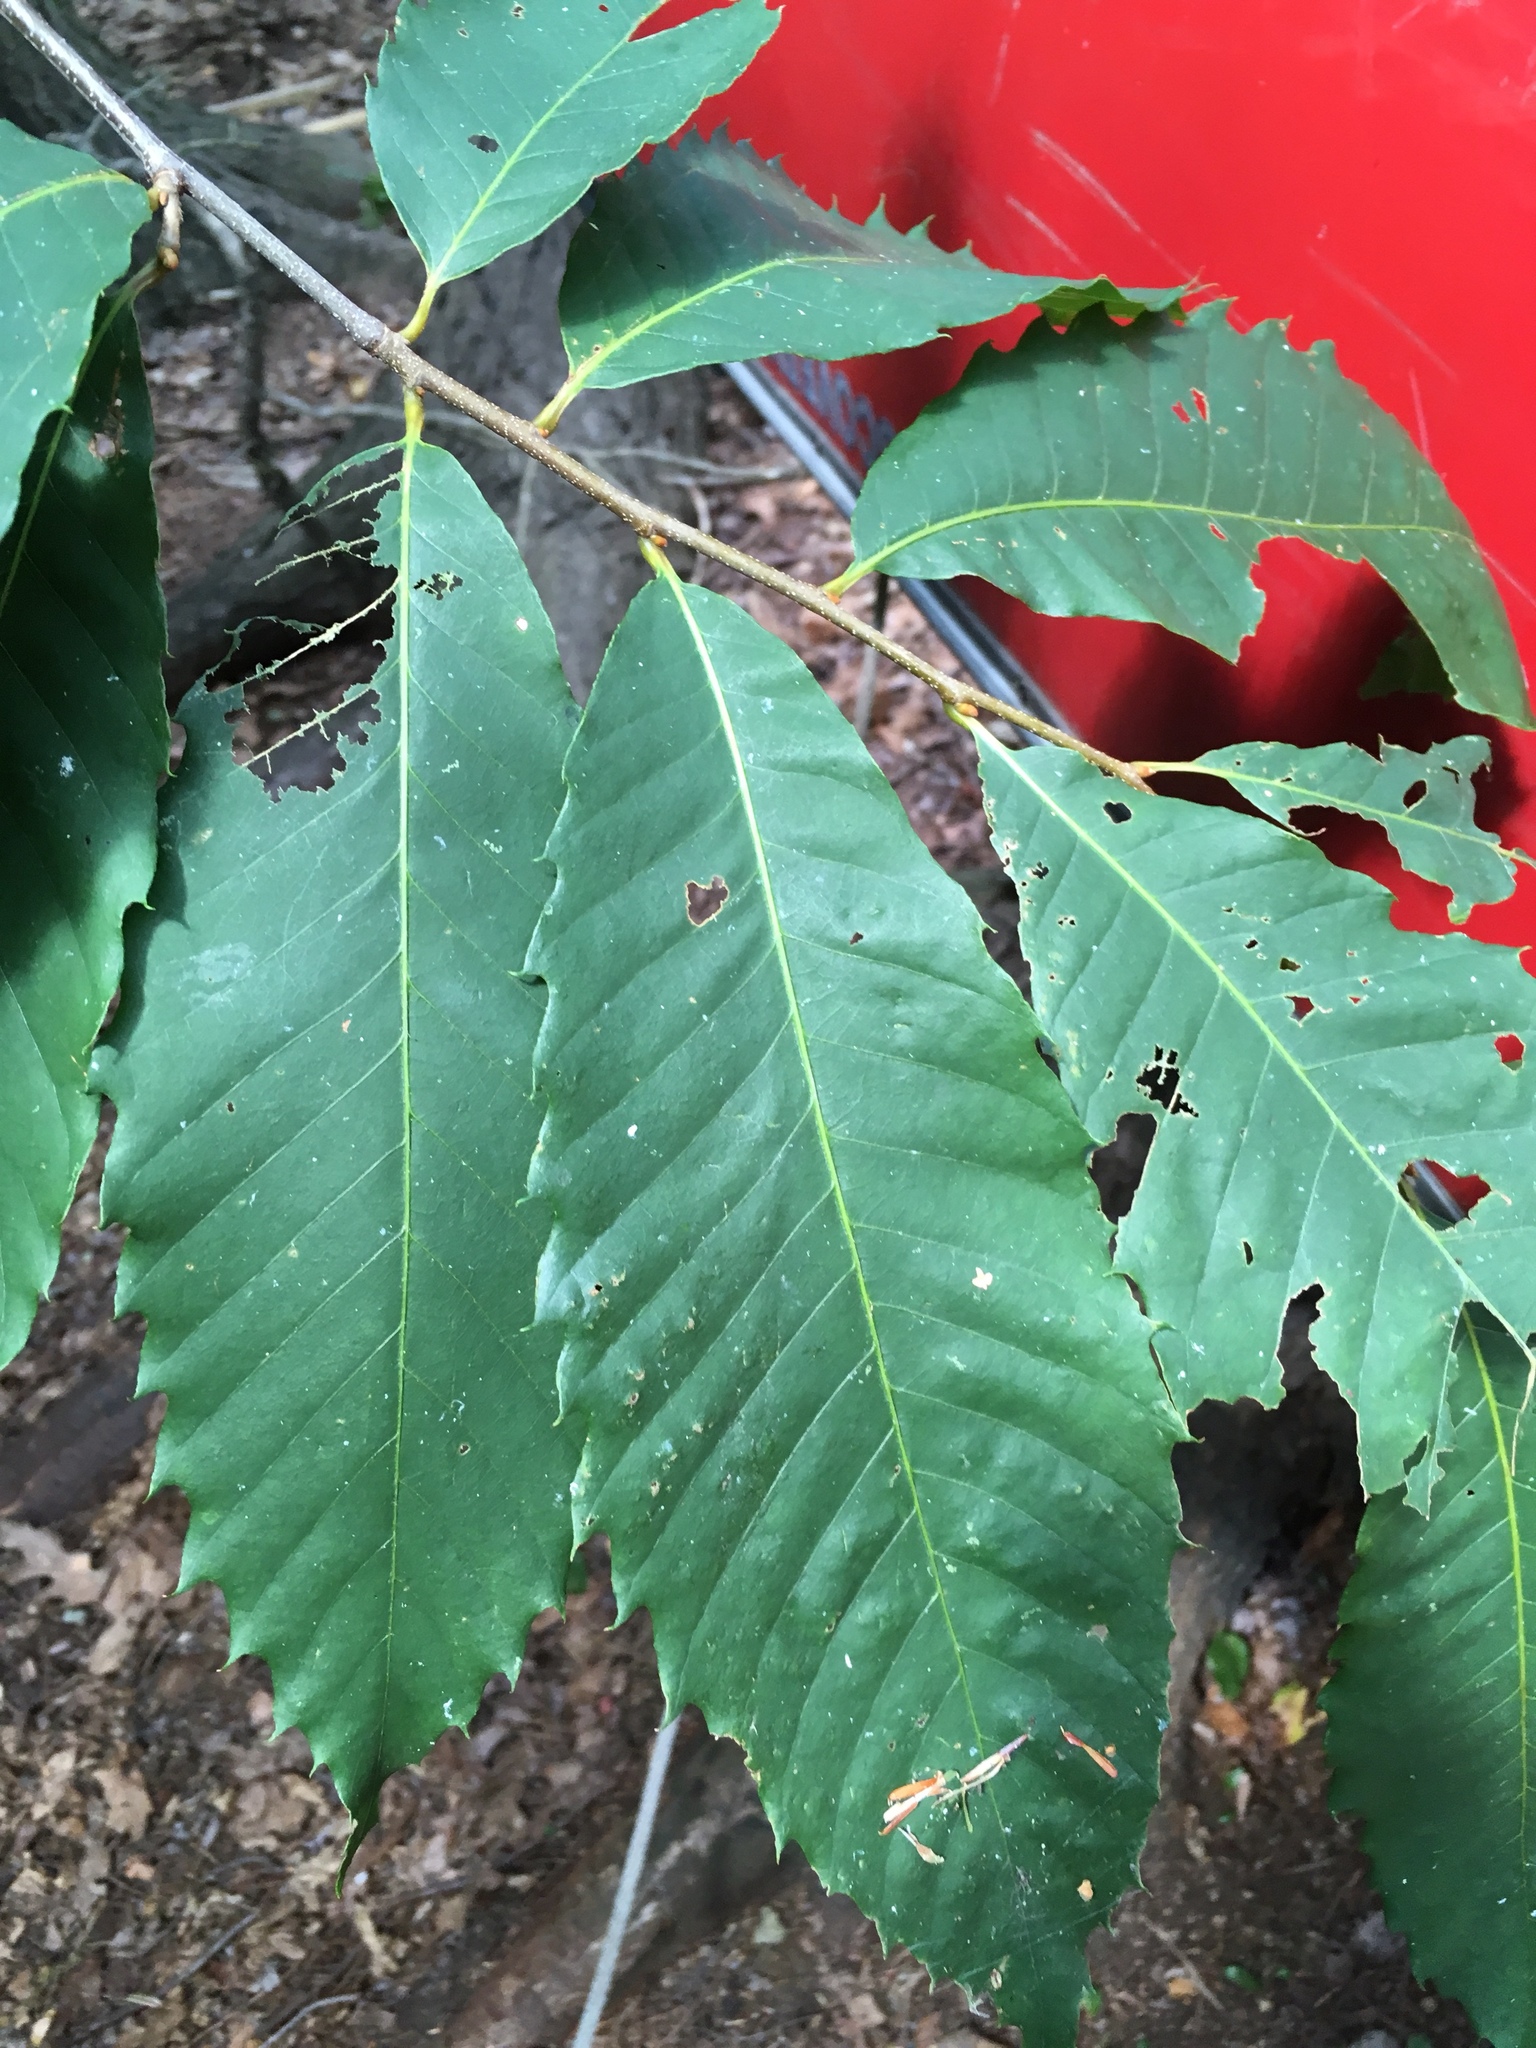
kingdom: Plantae
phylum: Tracheophyta
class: Magnoliopsida
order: Fagales
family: Fagaceae
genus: Castanea
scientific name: Castanea dentata
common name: American chestnut
